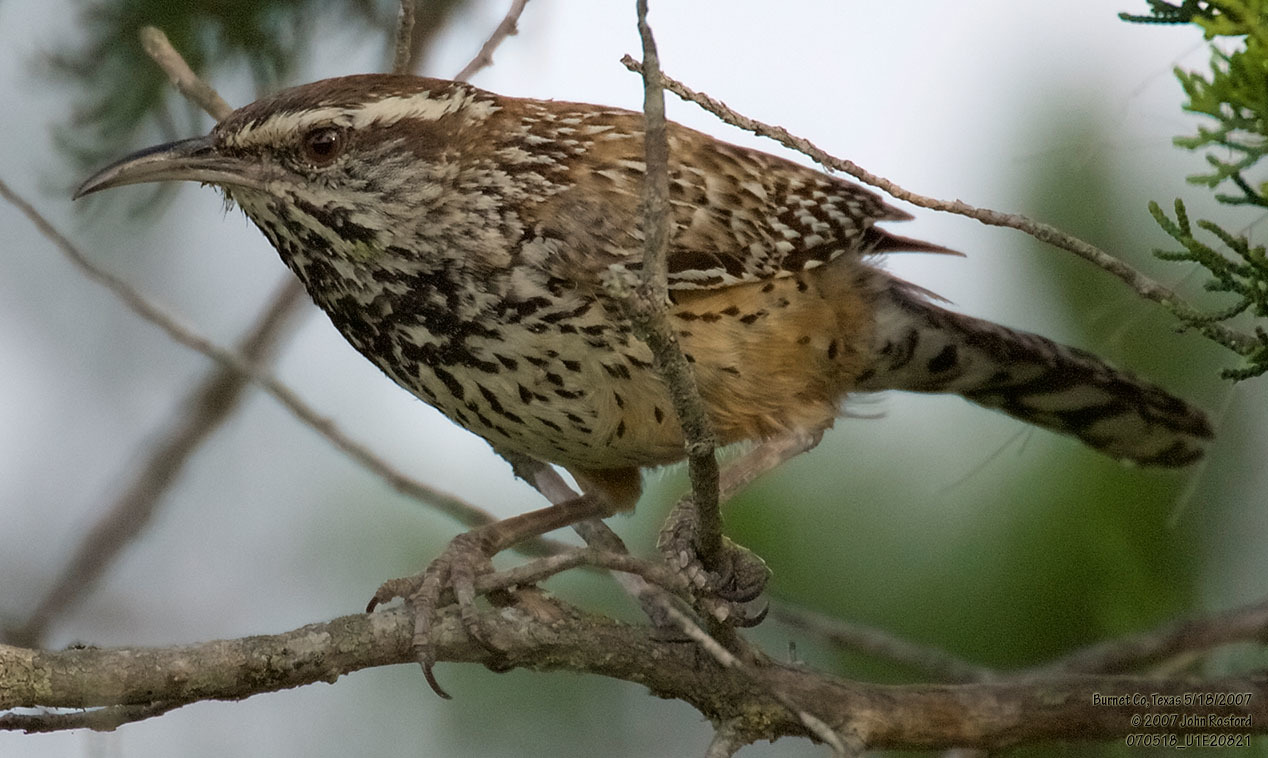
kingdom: Animalia
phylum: Chordata
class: Aves
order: Passeriformes
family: Troglodytidae
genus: Campylorhynchus
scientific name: Campylorhynchus brunneicapillus
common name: Cactus wren
